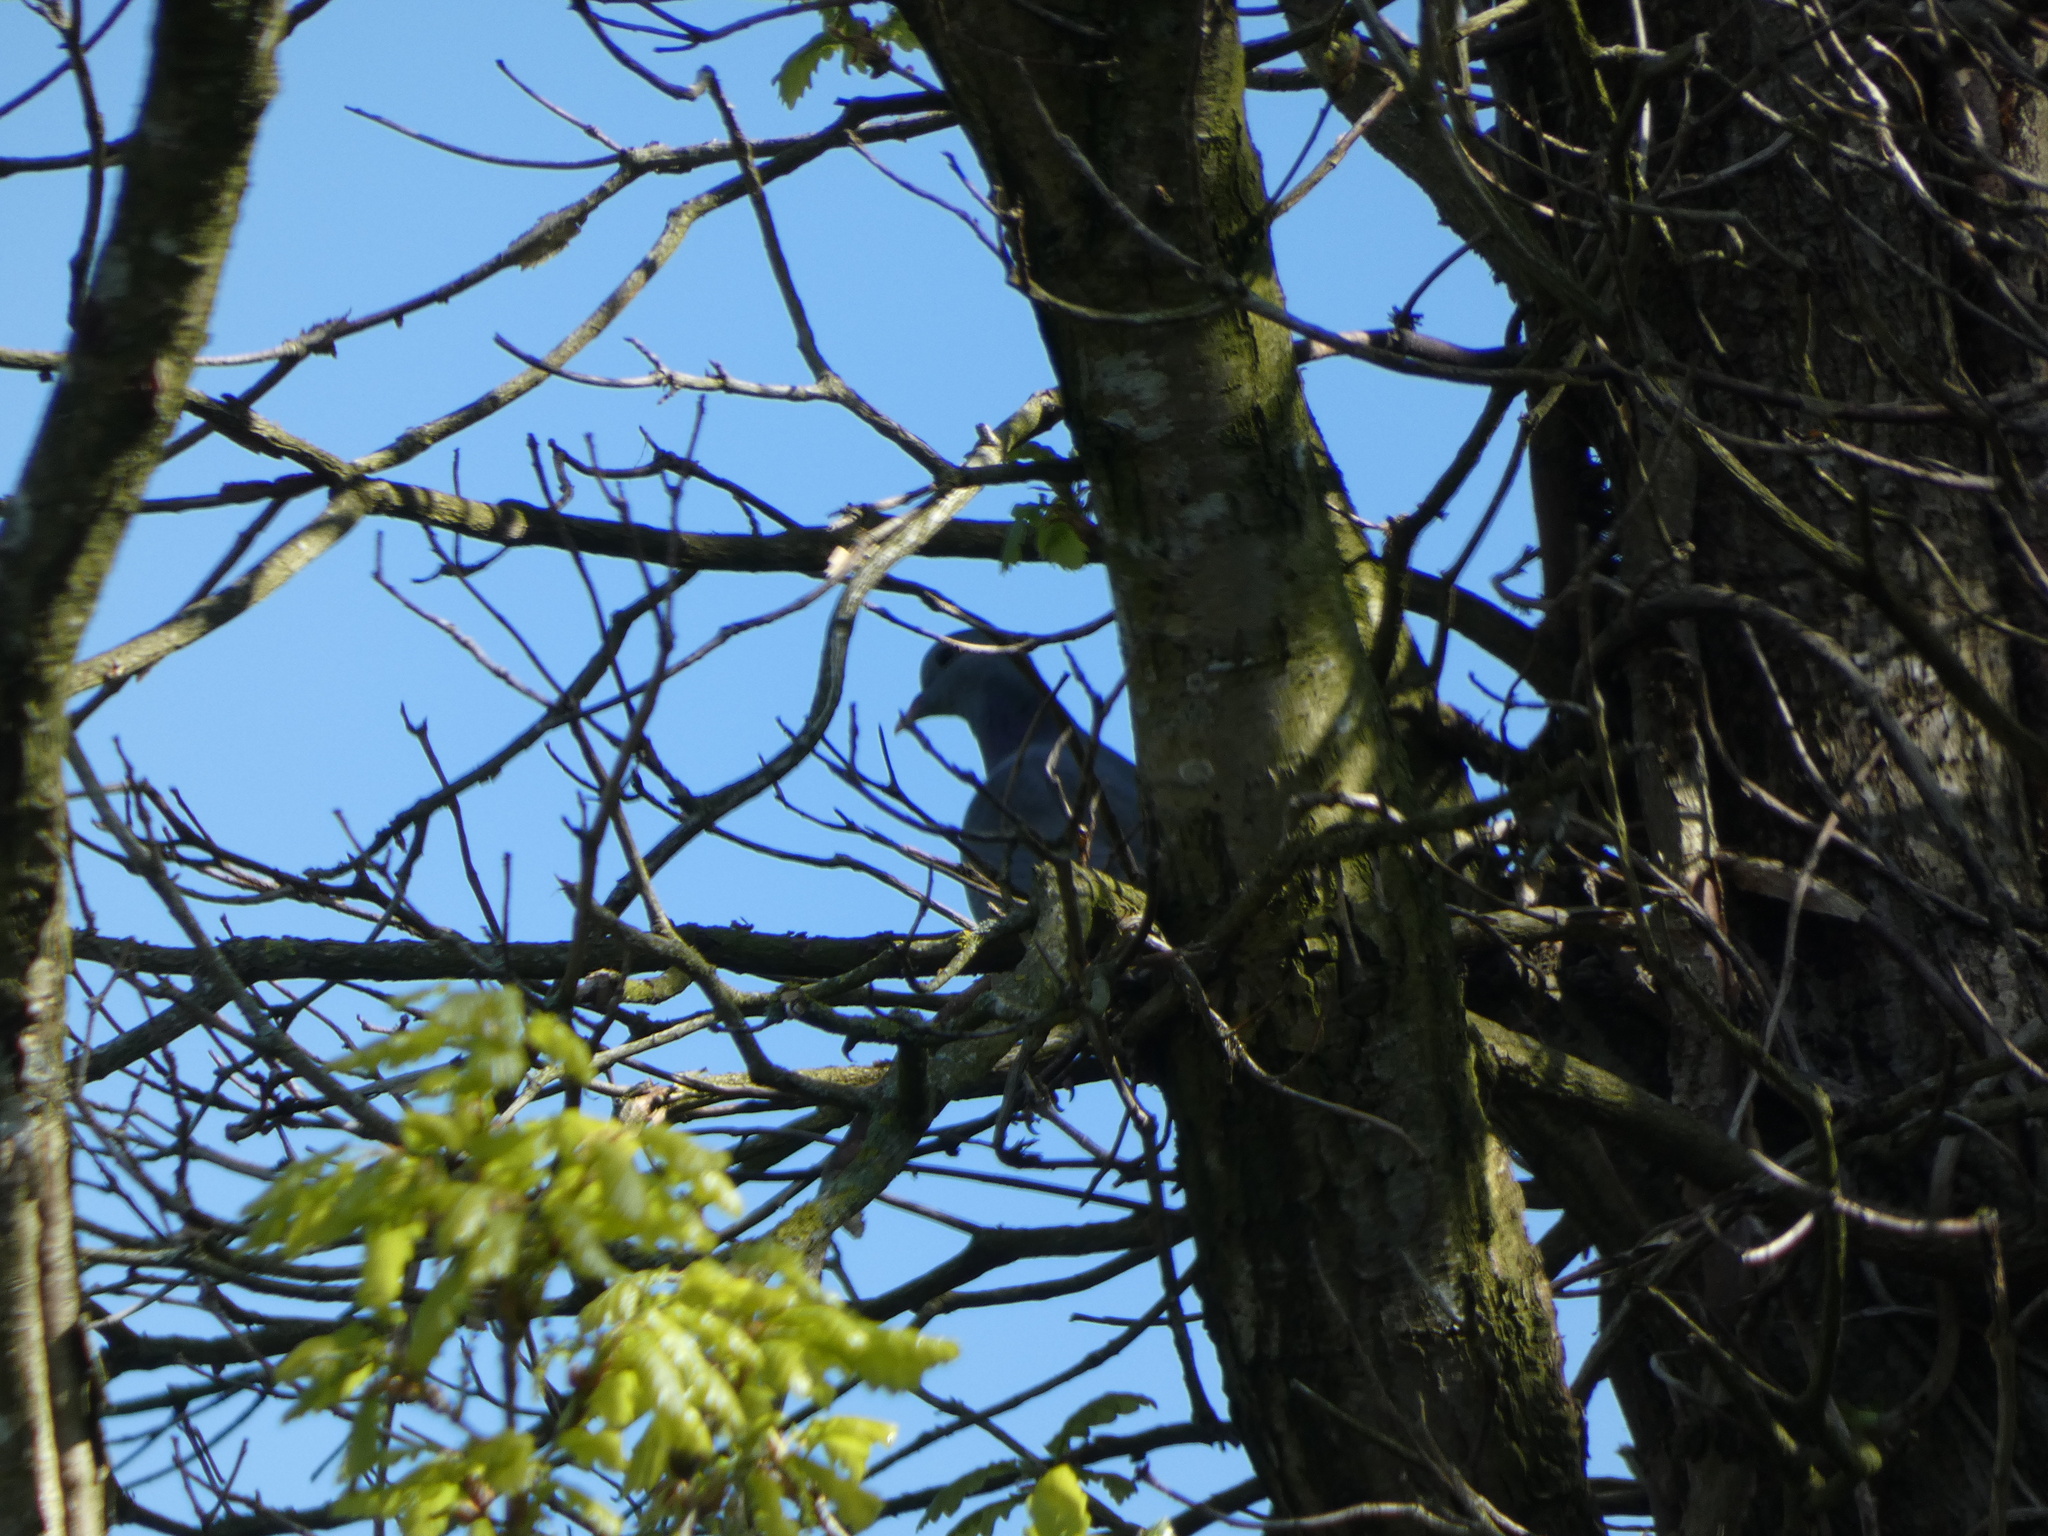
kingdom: Animalia
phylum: Chordata
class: Aves
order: Columbiformes
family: Columbidae
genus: Columba
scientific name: Columba oenas
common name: Stock dove
